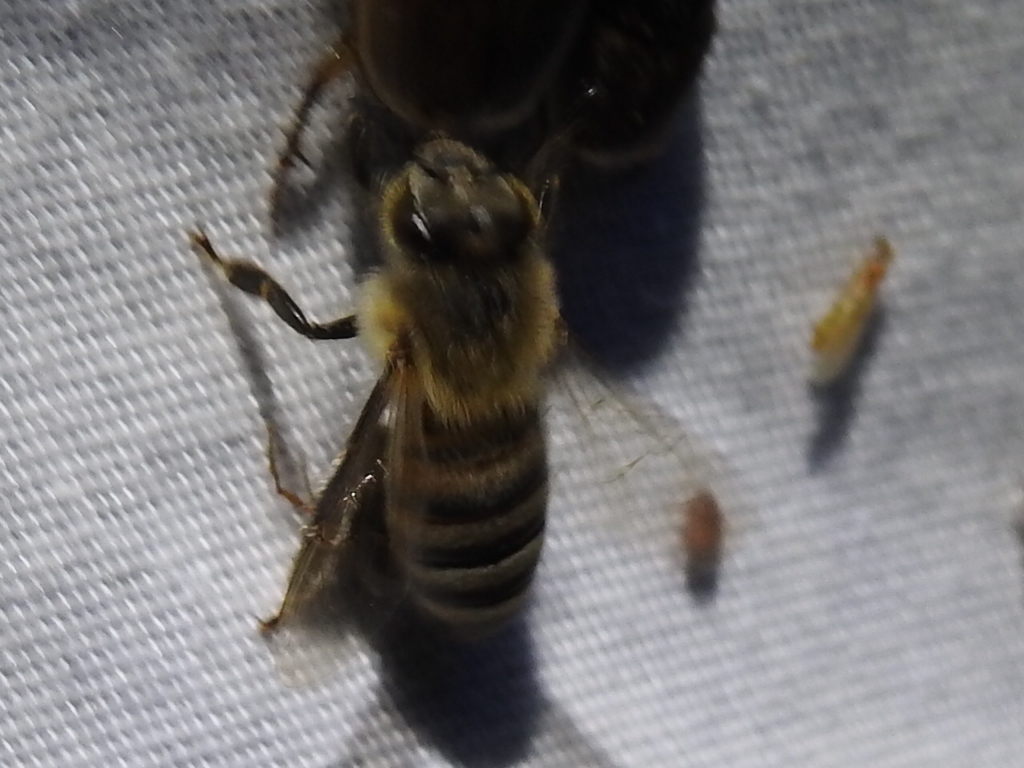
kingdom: Animalia
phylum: Arthropoda
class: Insecta
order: Hymenoptera
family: Apidae
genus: Apis
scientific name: Apis mellifera
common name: Honey bee
